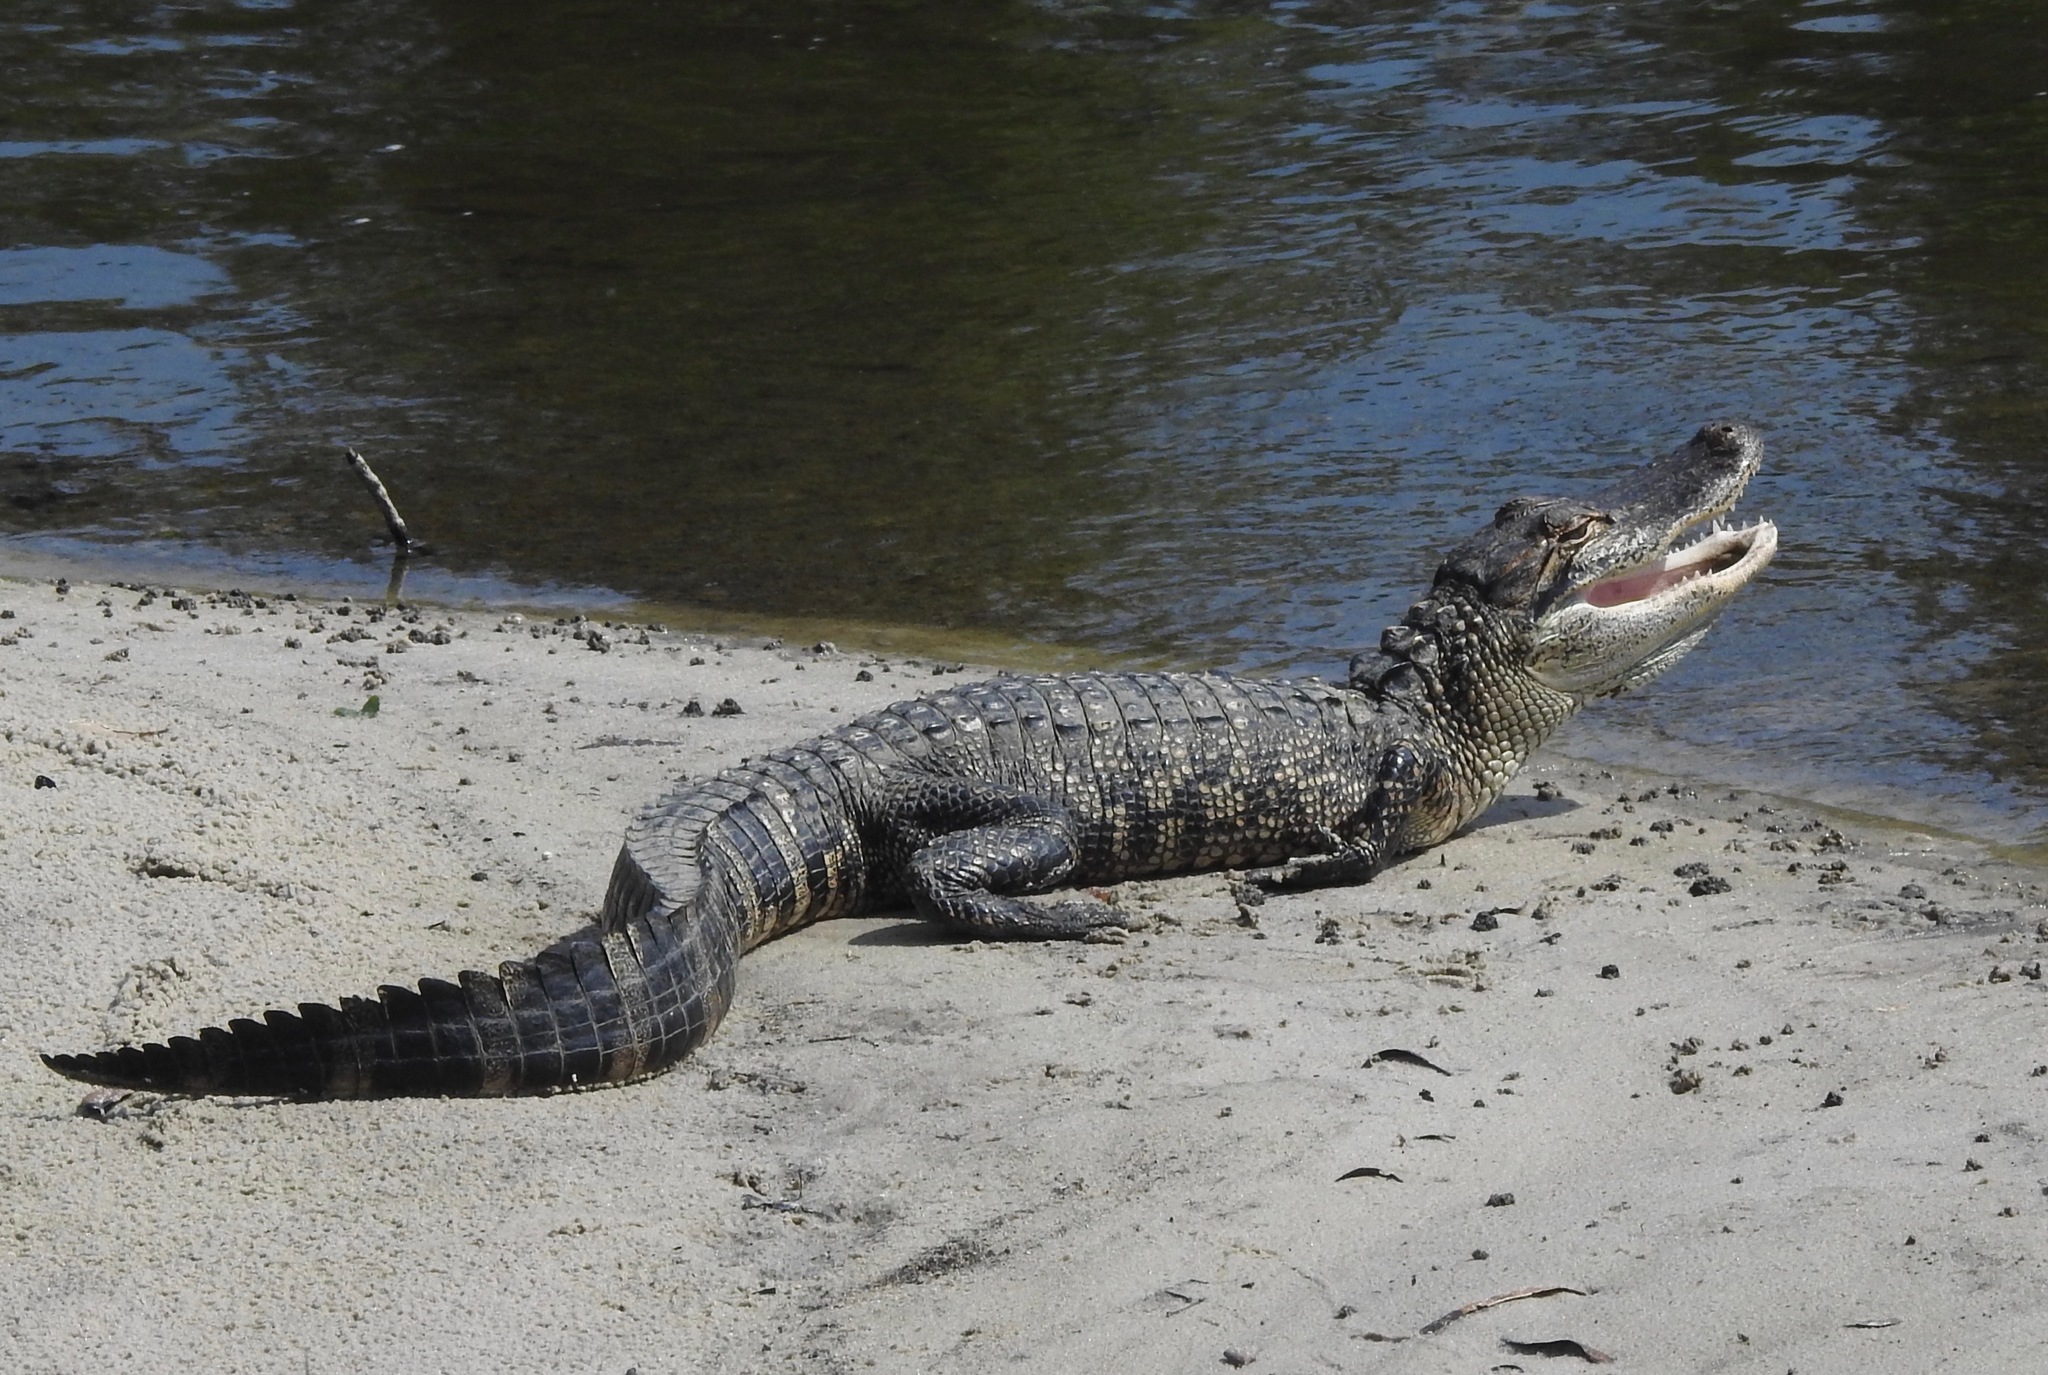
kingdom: Animalia
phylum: Chordata
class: Crocodylia
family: Alligatoridae
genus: Alligator
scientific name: Alligator mississippiensis
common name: American alligator
